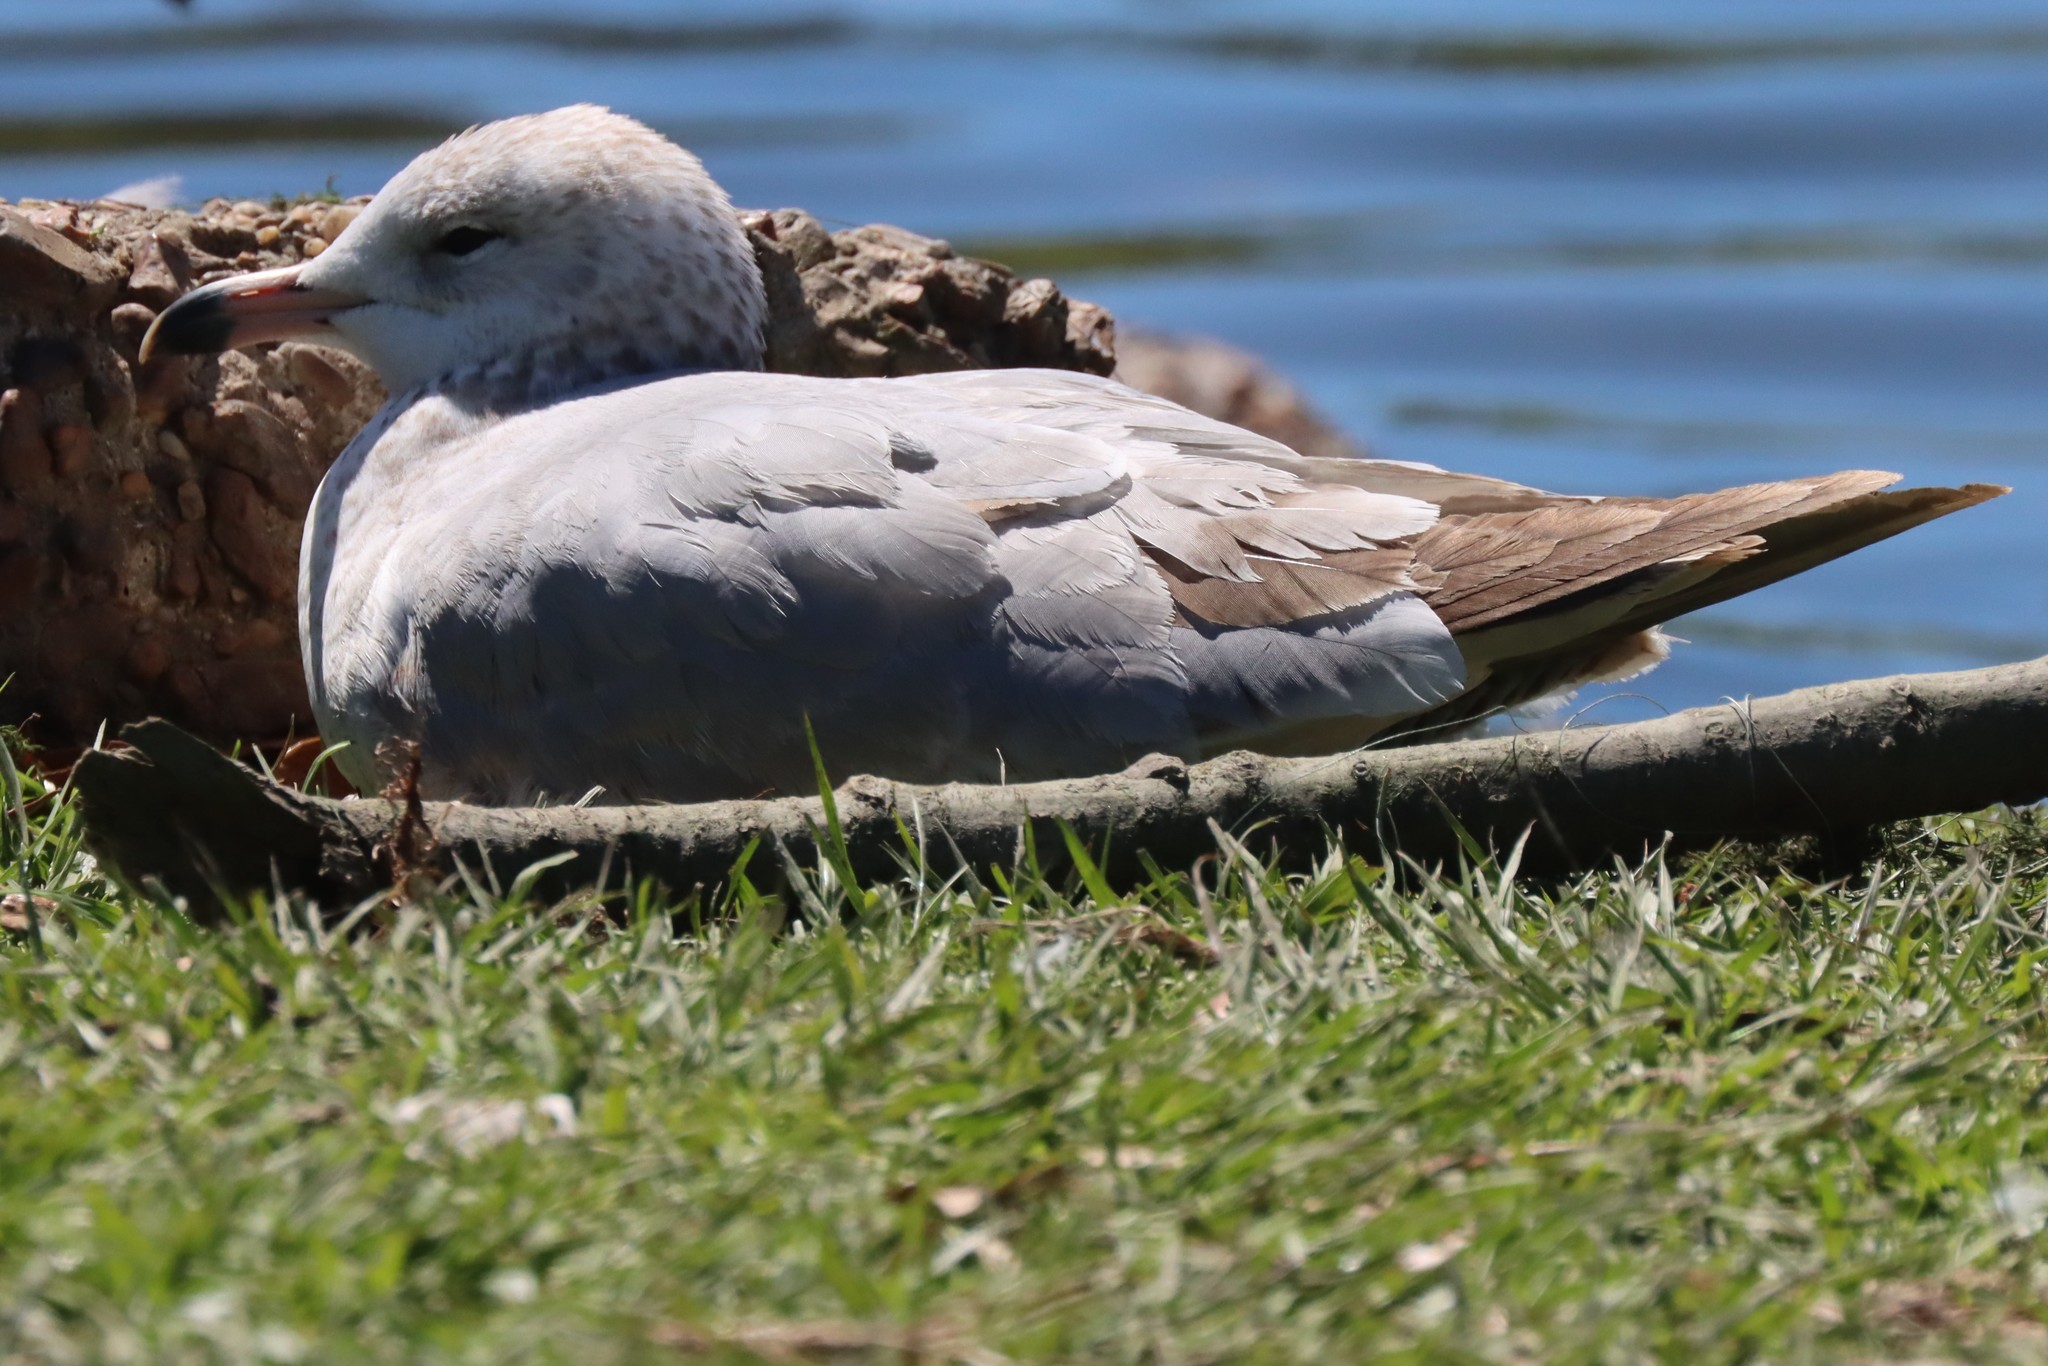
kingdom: Animalia
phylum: Chordata
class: Aves
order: Charadriiformes
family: Laridae
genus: Larus
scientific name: Larus delawarensis
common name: Ring-billed gull
